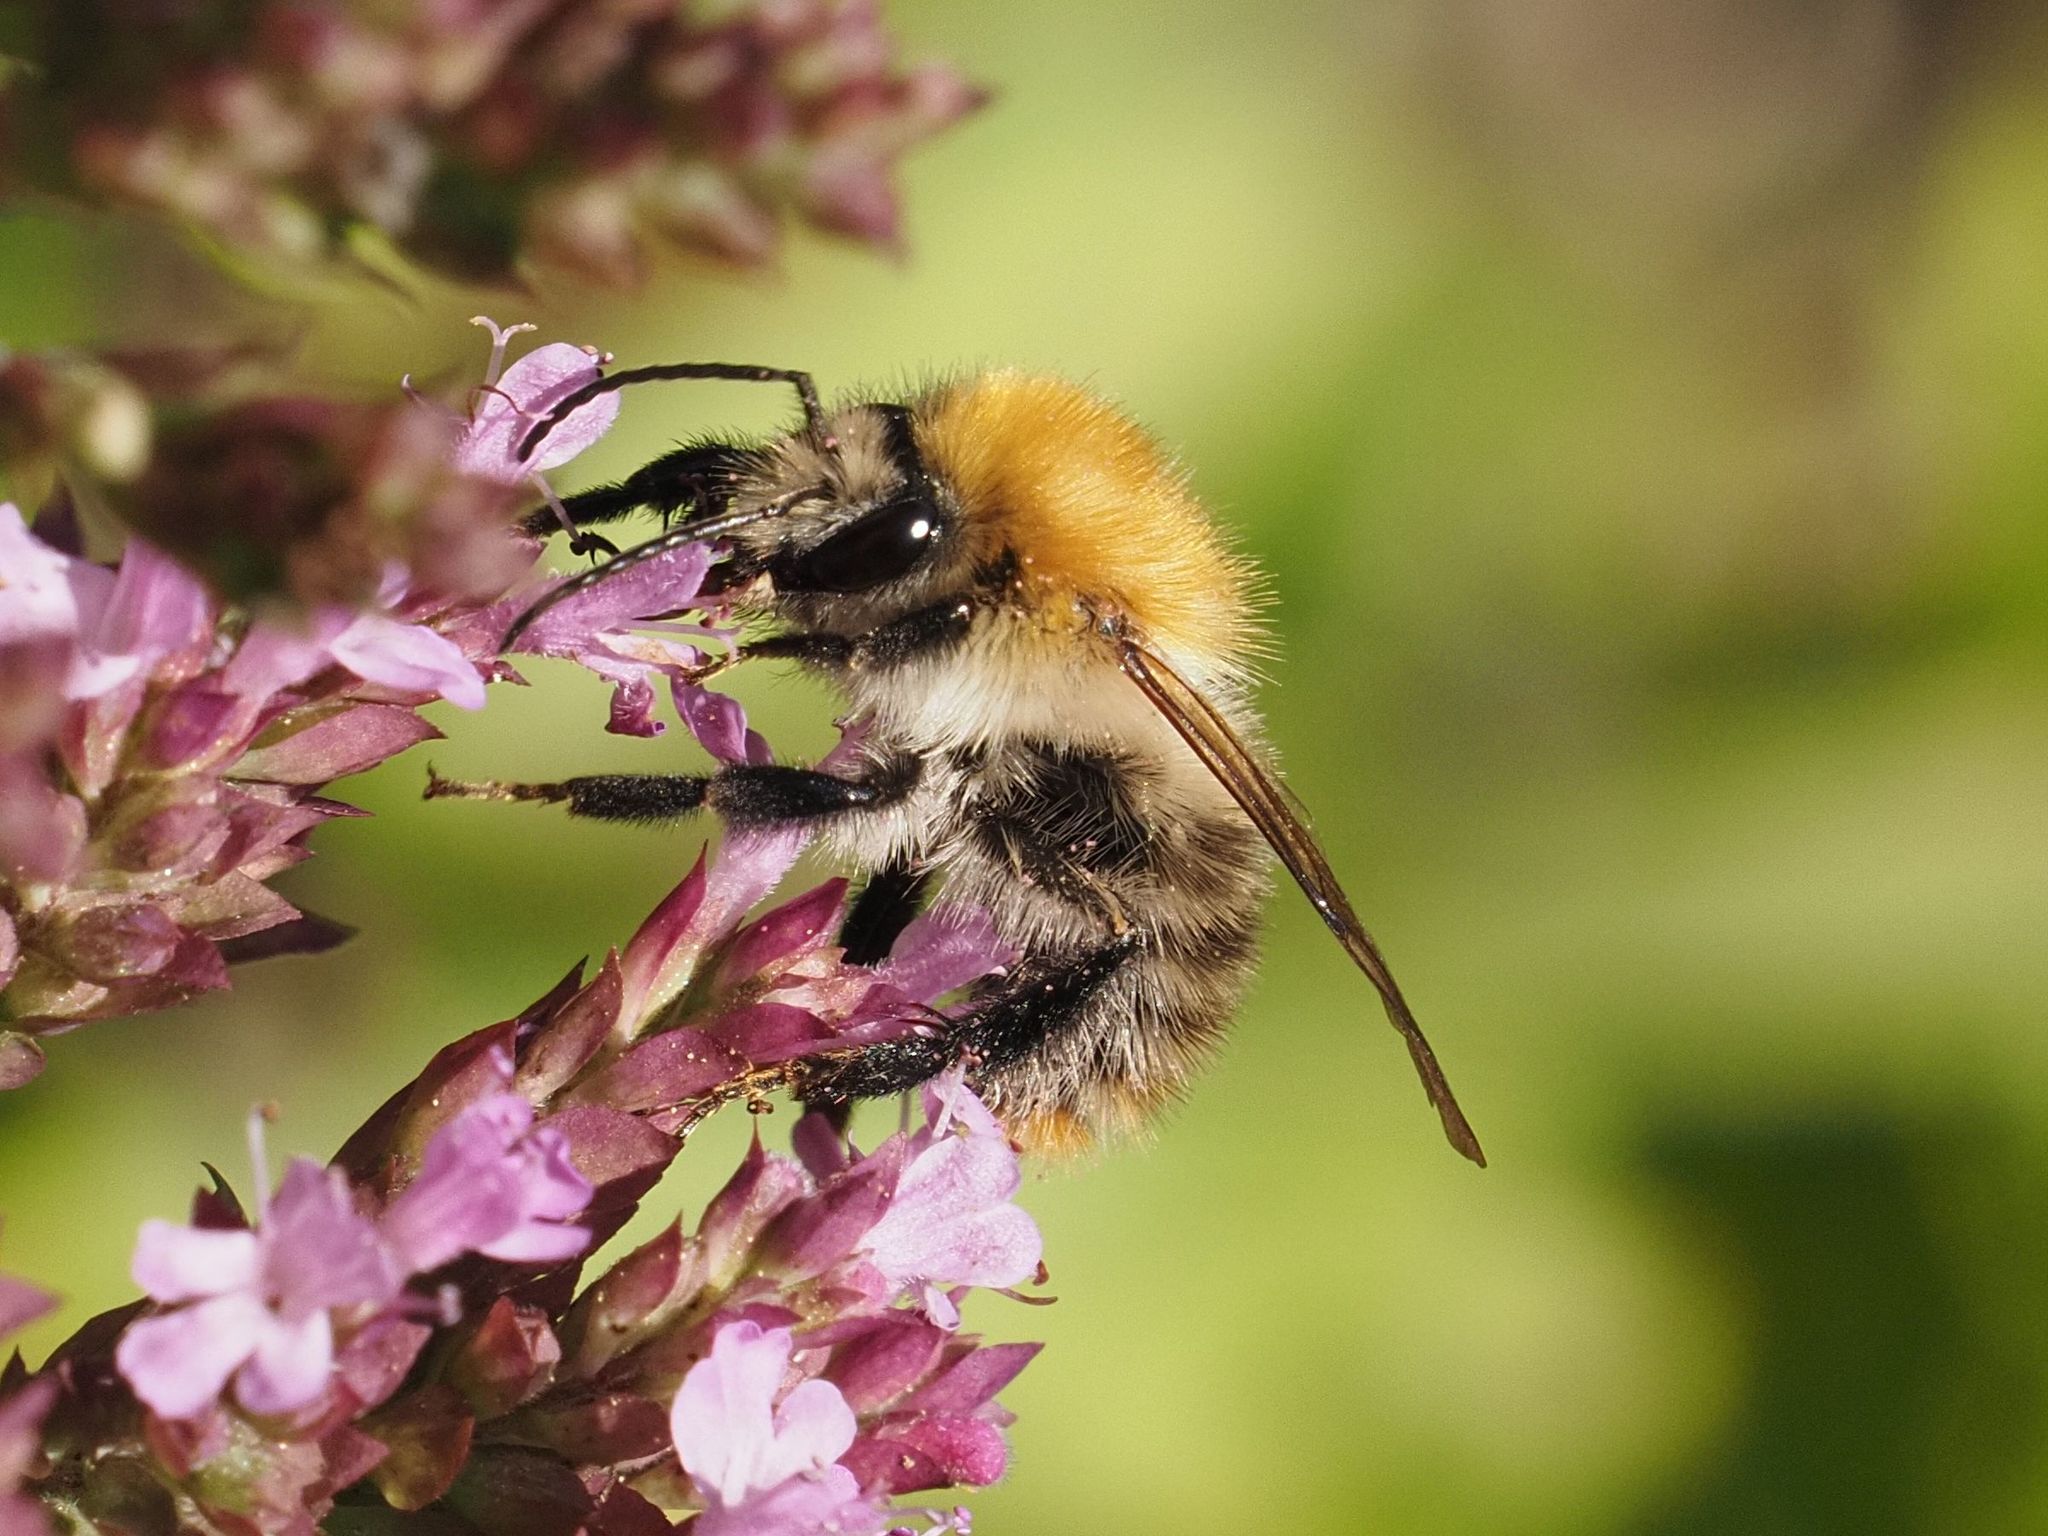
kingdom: Animalia
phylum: Arthropoda
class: Insecta
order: Hymenoptera
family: Apidae
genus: Bombus
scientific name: Bombus pascuorum
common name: Common carder bee
